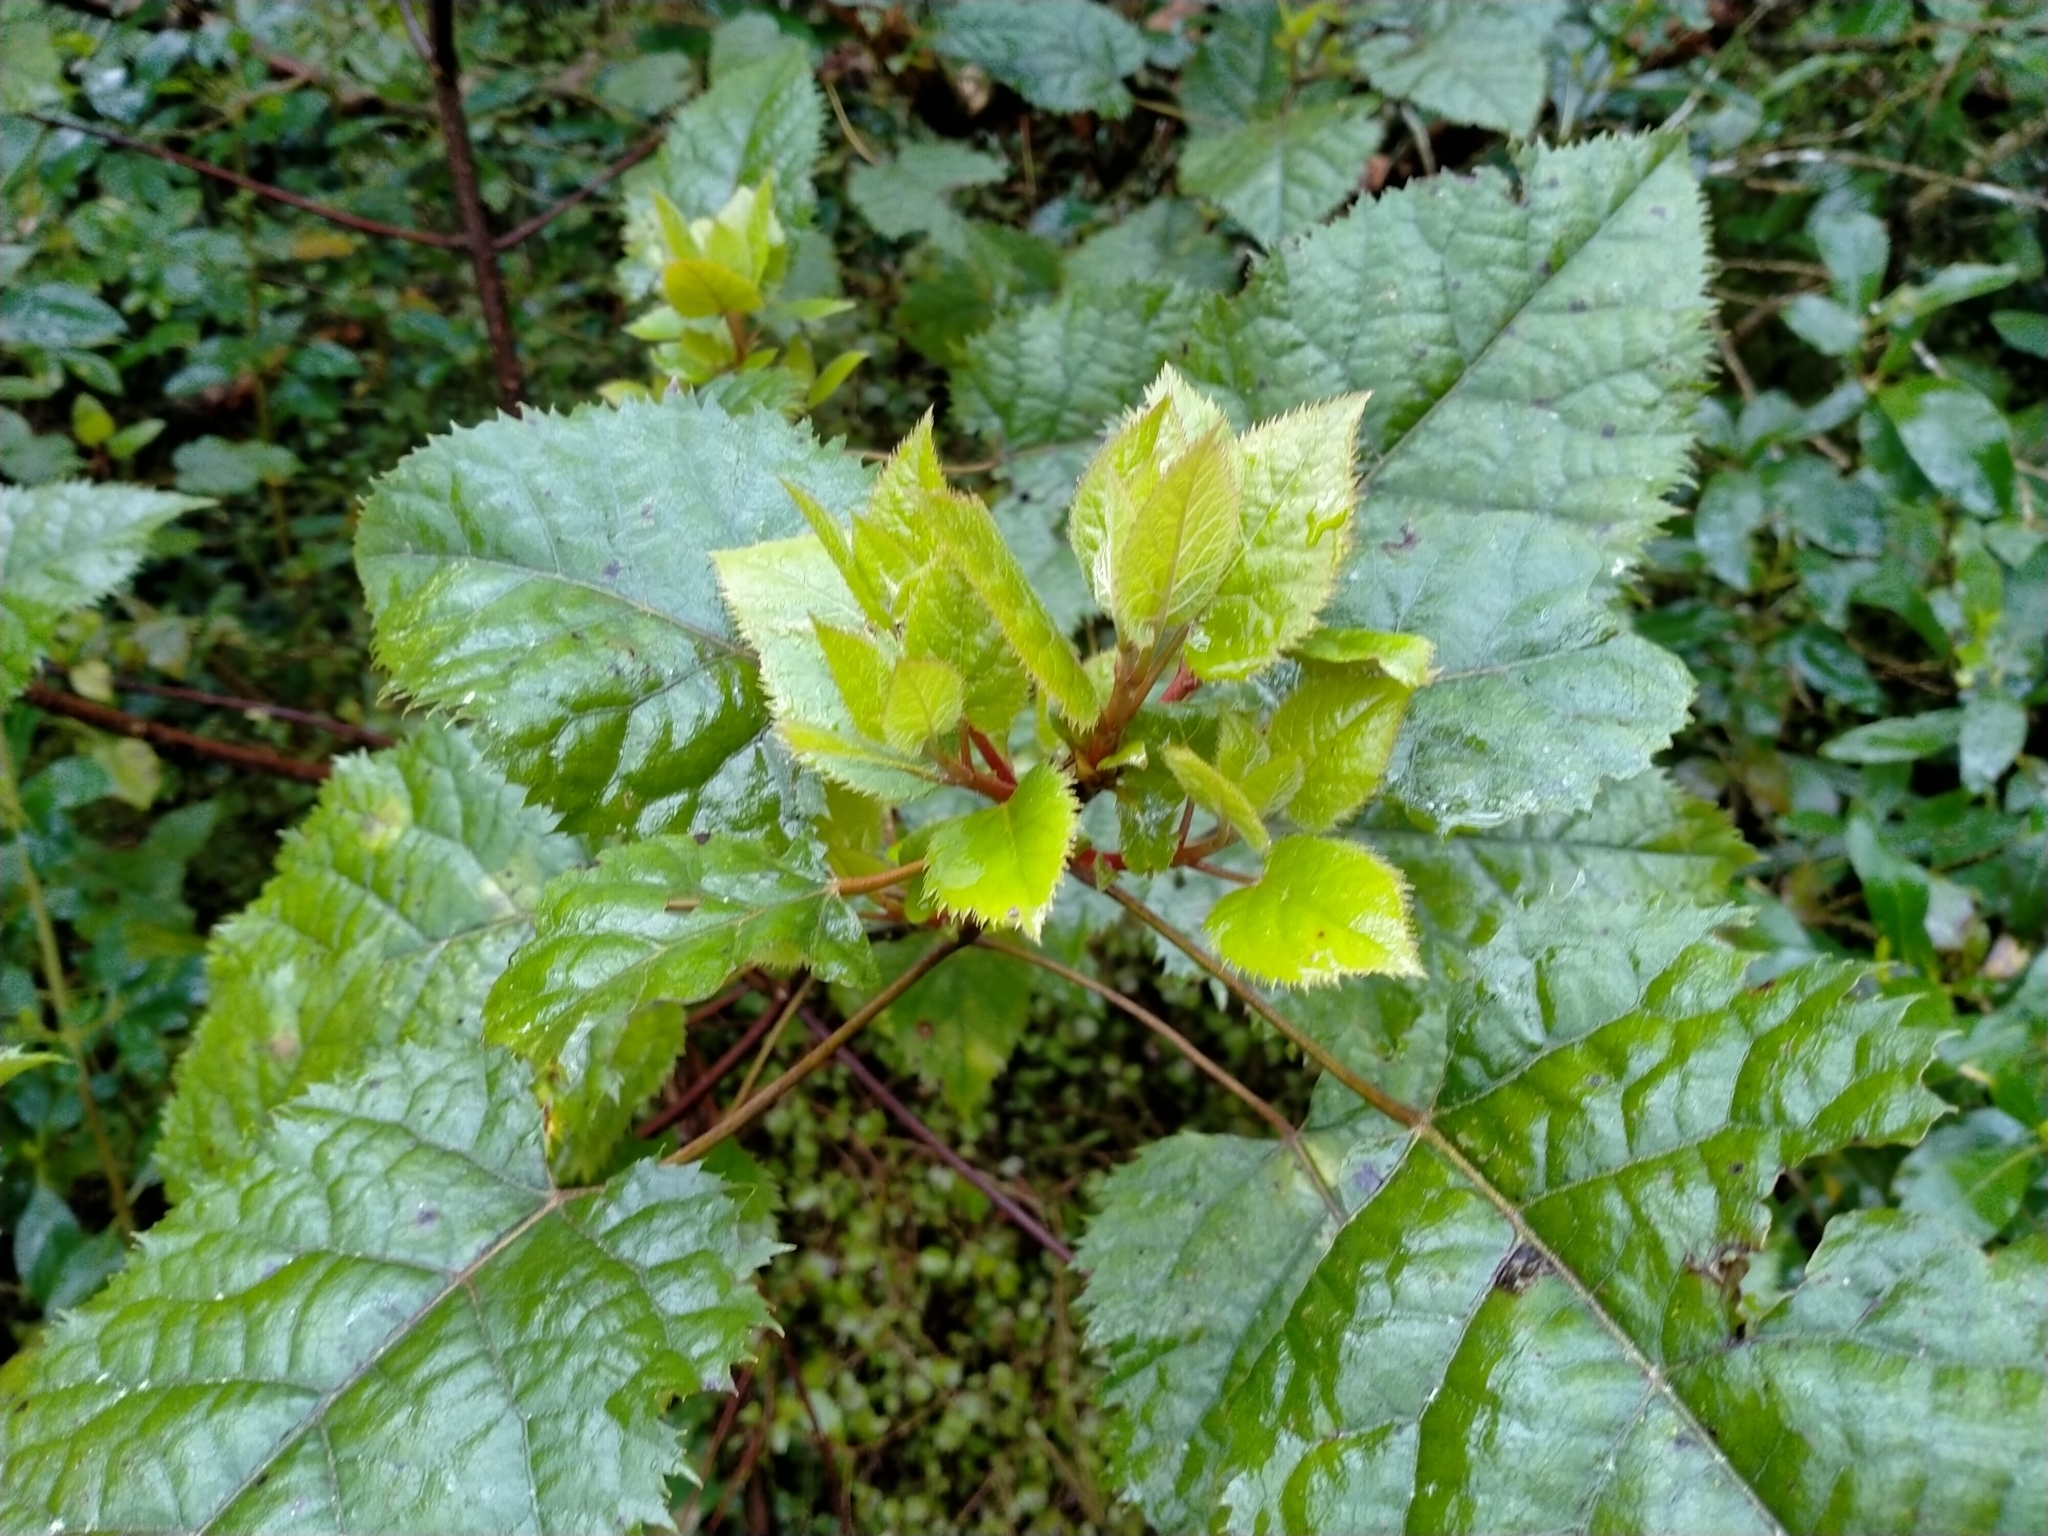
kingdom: Plantae
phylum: Tracheophyta
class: Magnoliopsida
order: Oxalidales
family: Elaeocarpaceae
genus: Aristotelia
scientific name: Aristotelia serrata
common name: New zealand wineberry
